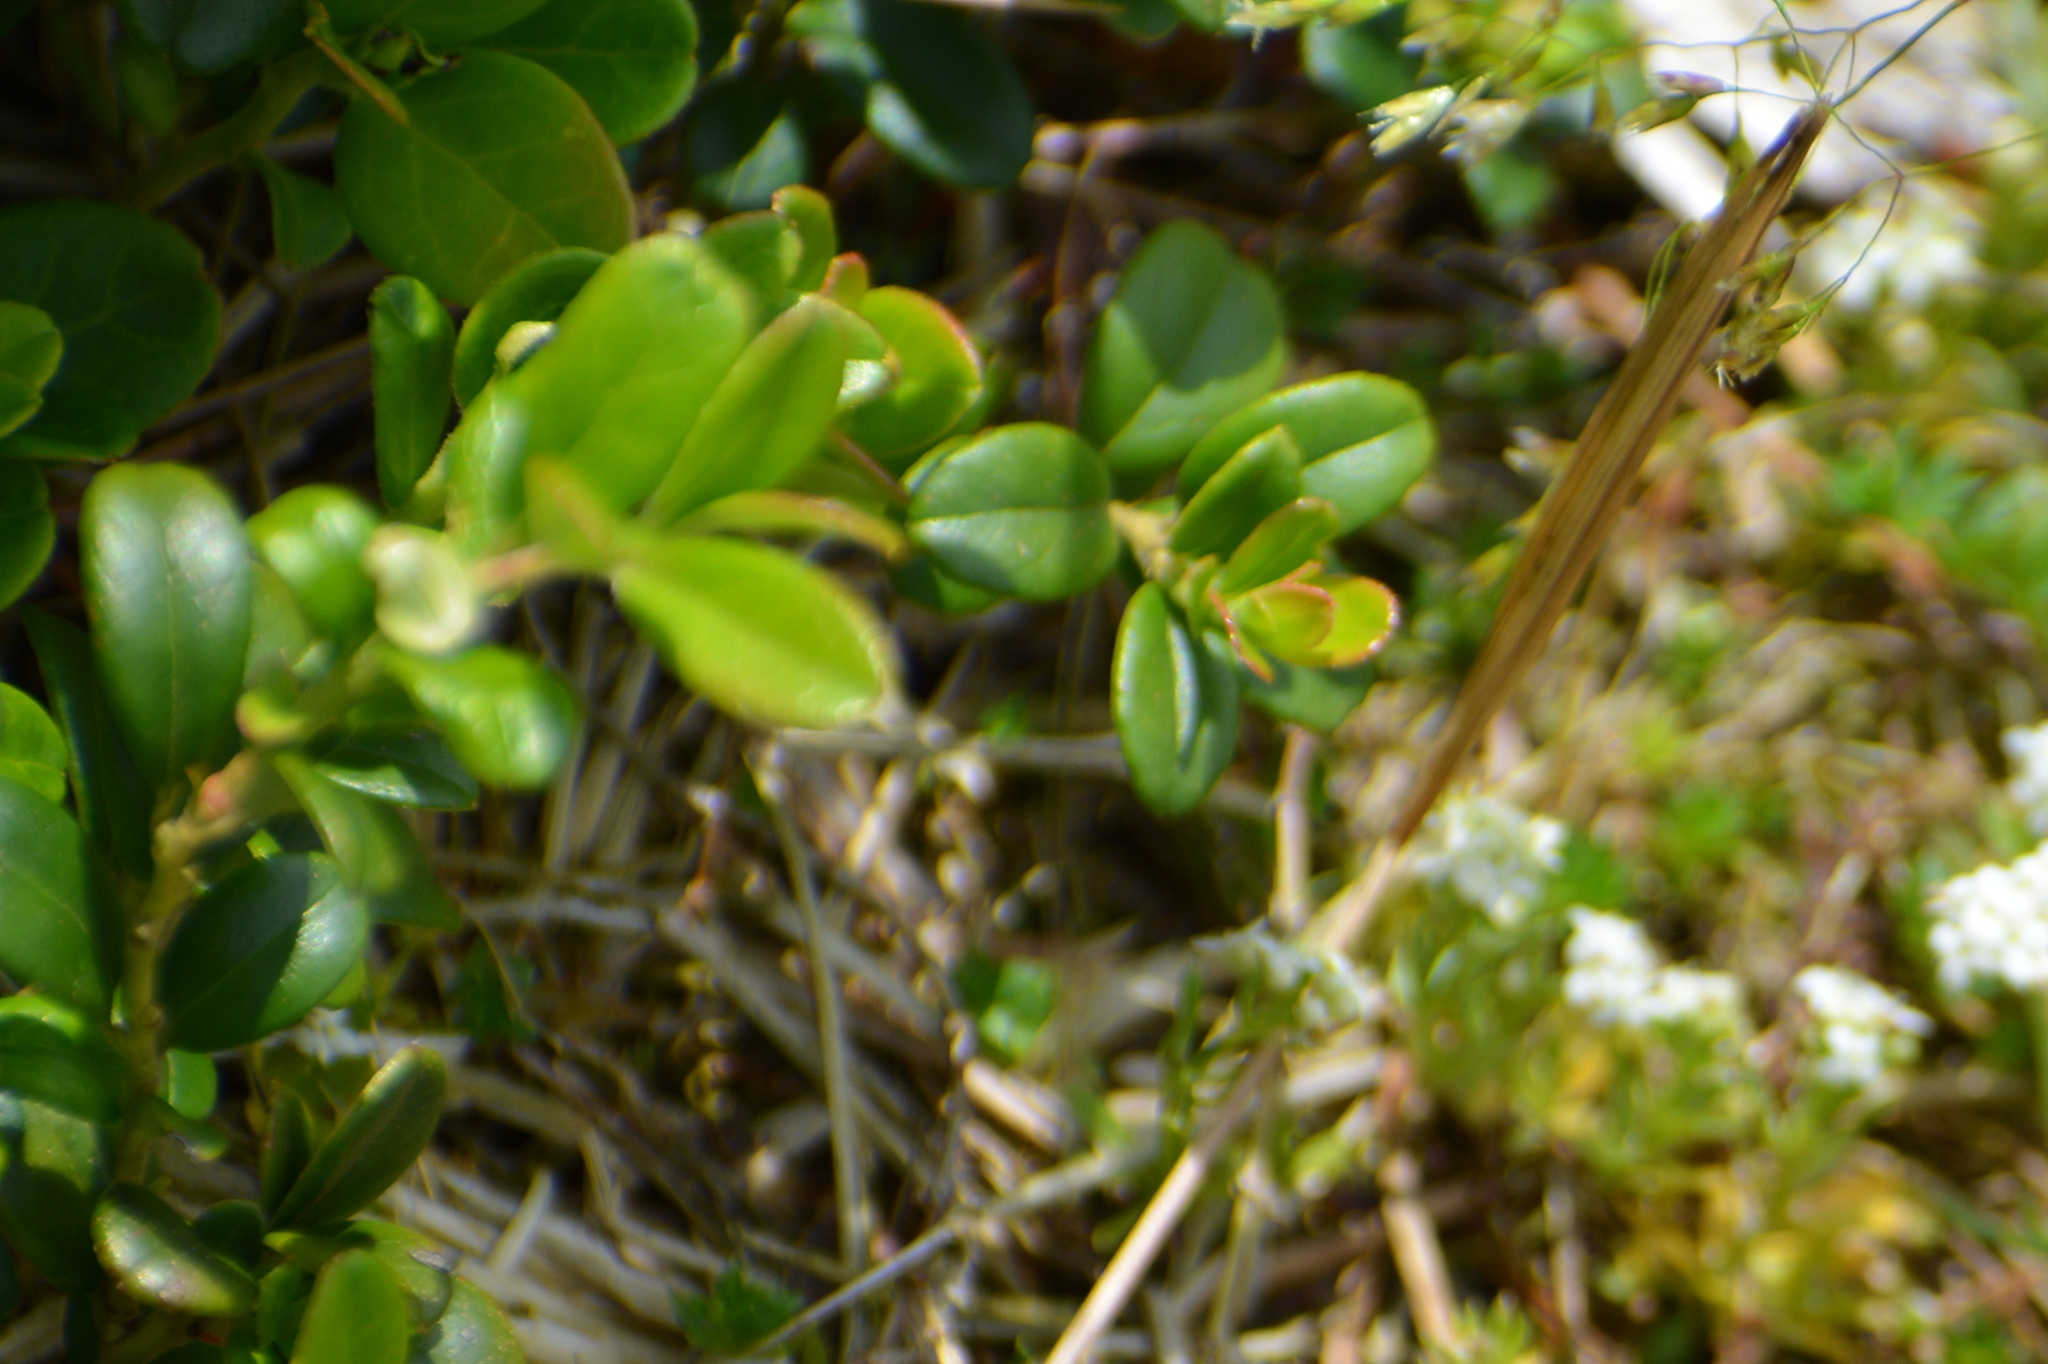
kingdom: Plantae
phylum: Tracheophyta
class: Magnoliopsida
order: Ericales
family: Ericaceae
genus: Vaccinium
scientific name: Vaccinium vitis-idaea
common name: Cowberry
